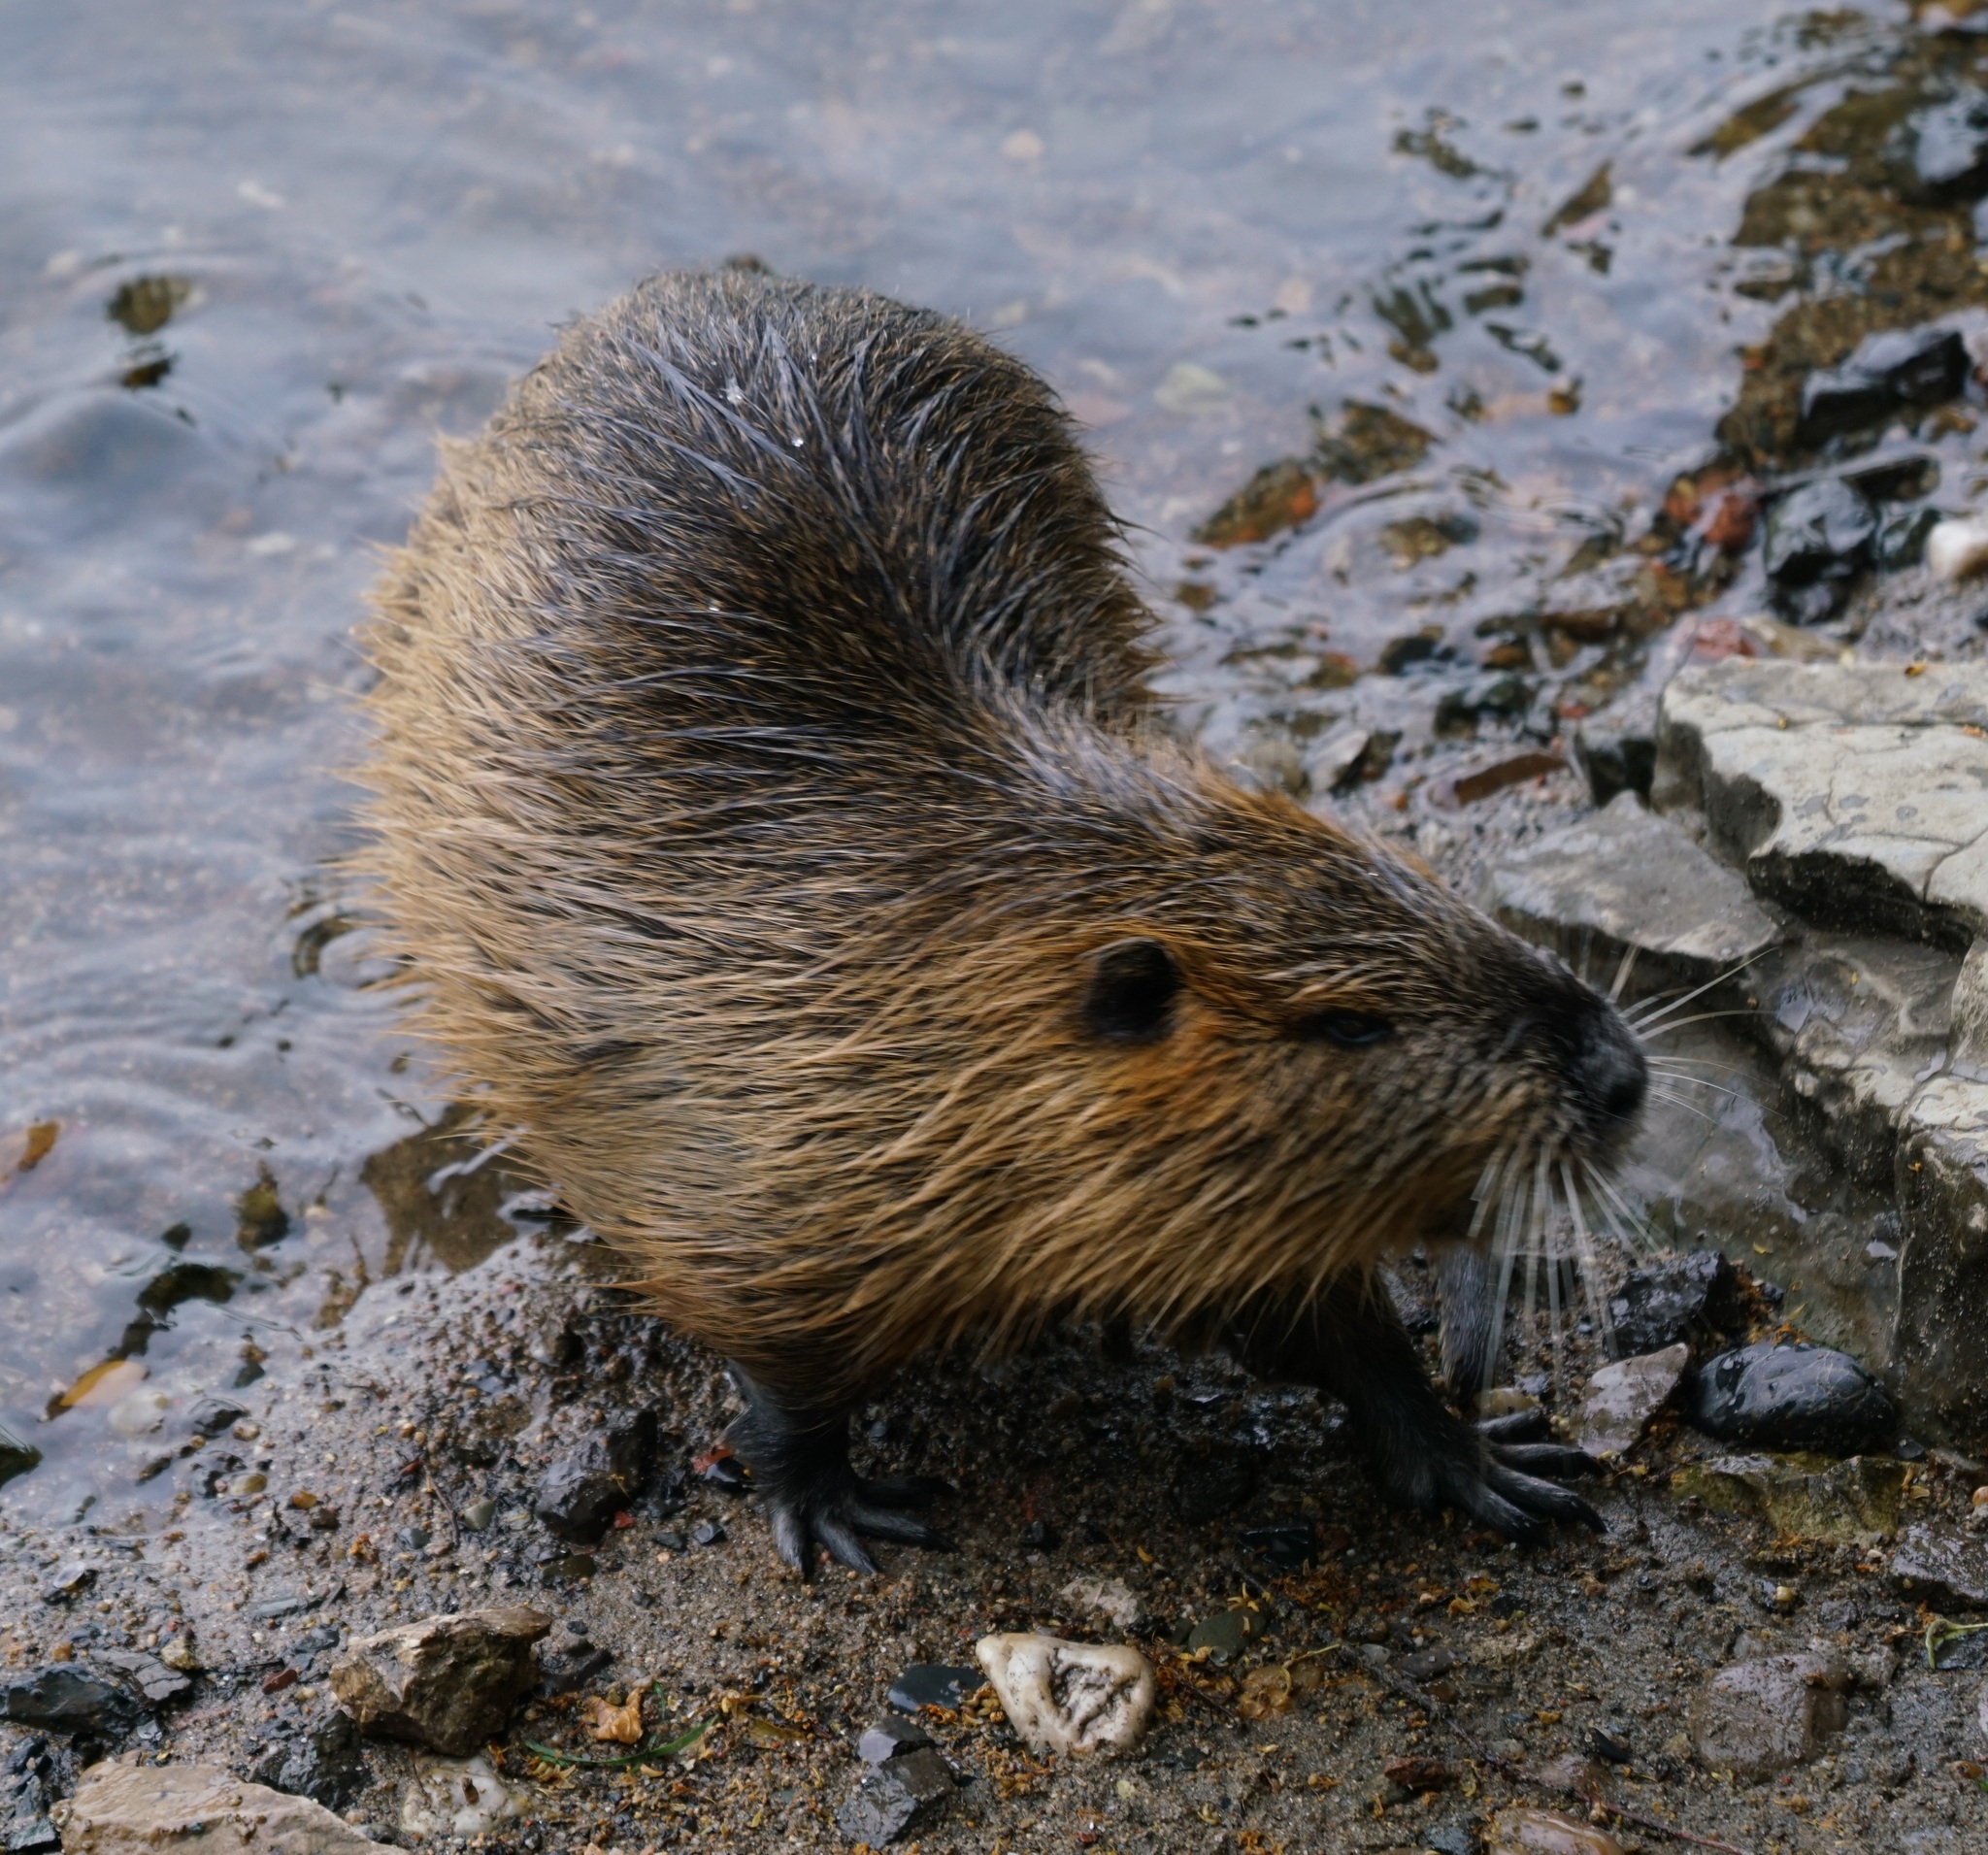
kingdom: Animalia
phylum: Chordata
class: Mammalia
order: Rodentia
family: Myocastoridae
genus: Myocastor
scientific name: Myocastor coypus
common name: Coypu
